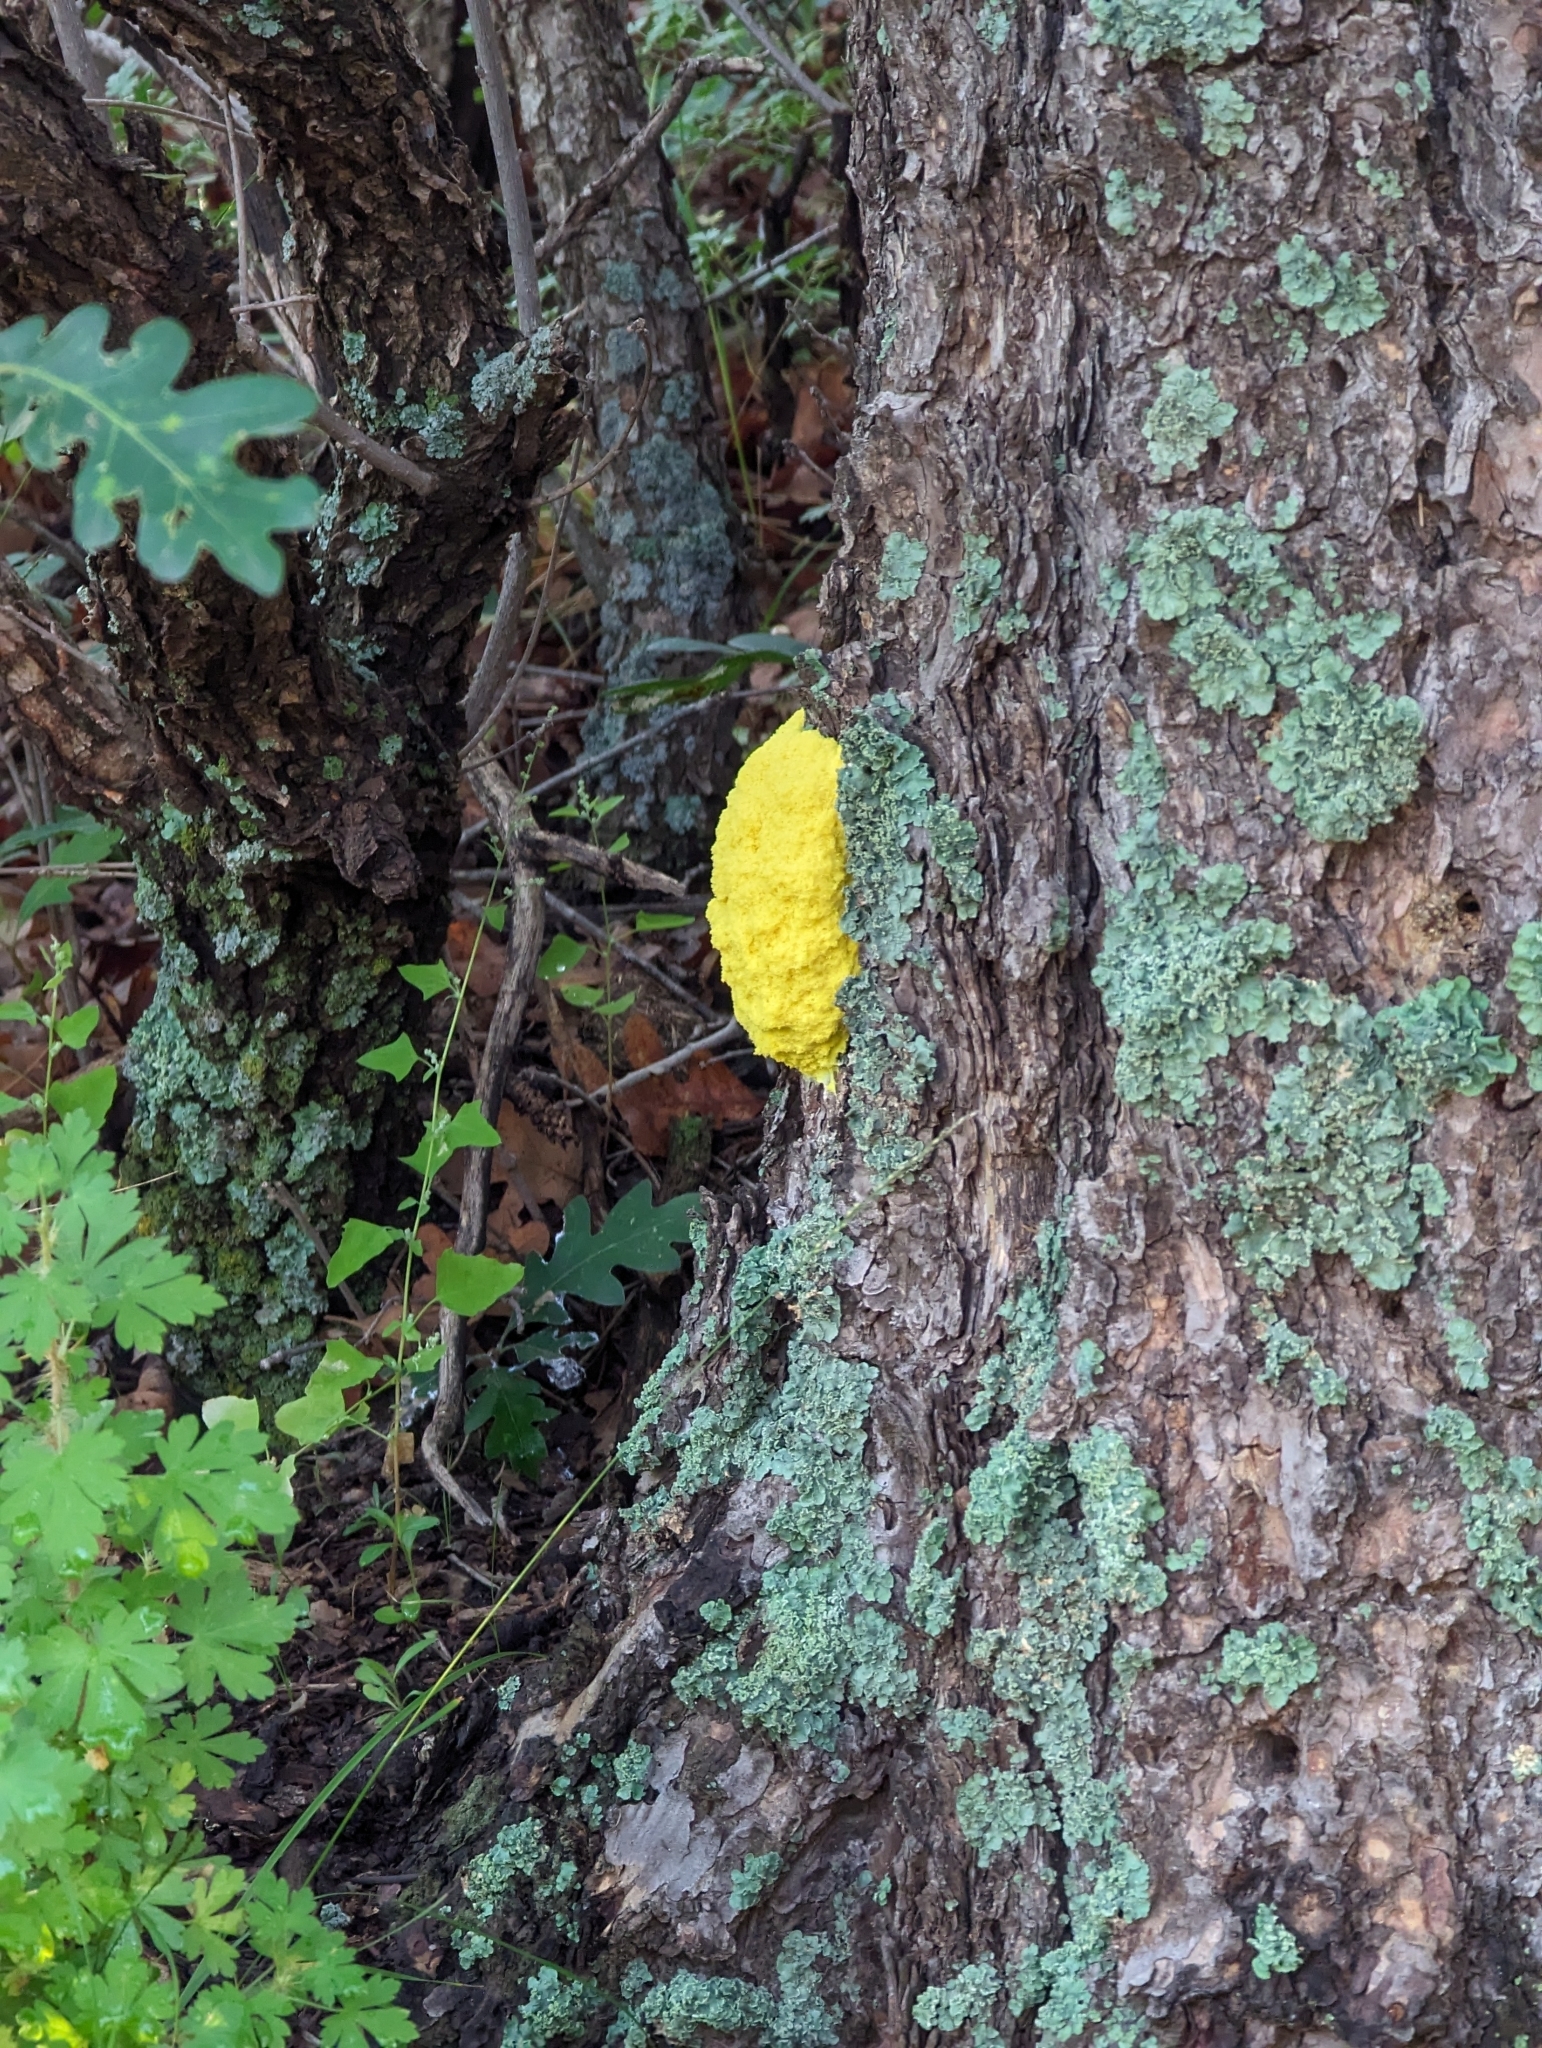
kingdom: Protozoa
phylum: Mycetozoa
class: Myxomycetes
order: Physarales
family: Physaraceae
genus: Fuligo
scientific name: Fuligo septica
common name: Dog vomit slime mold
